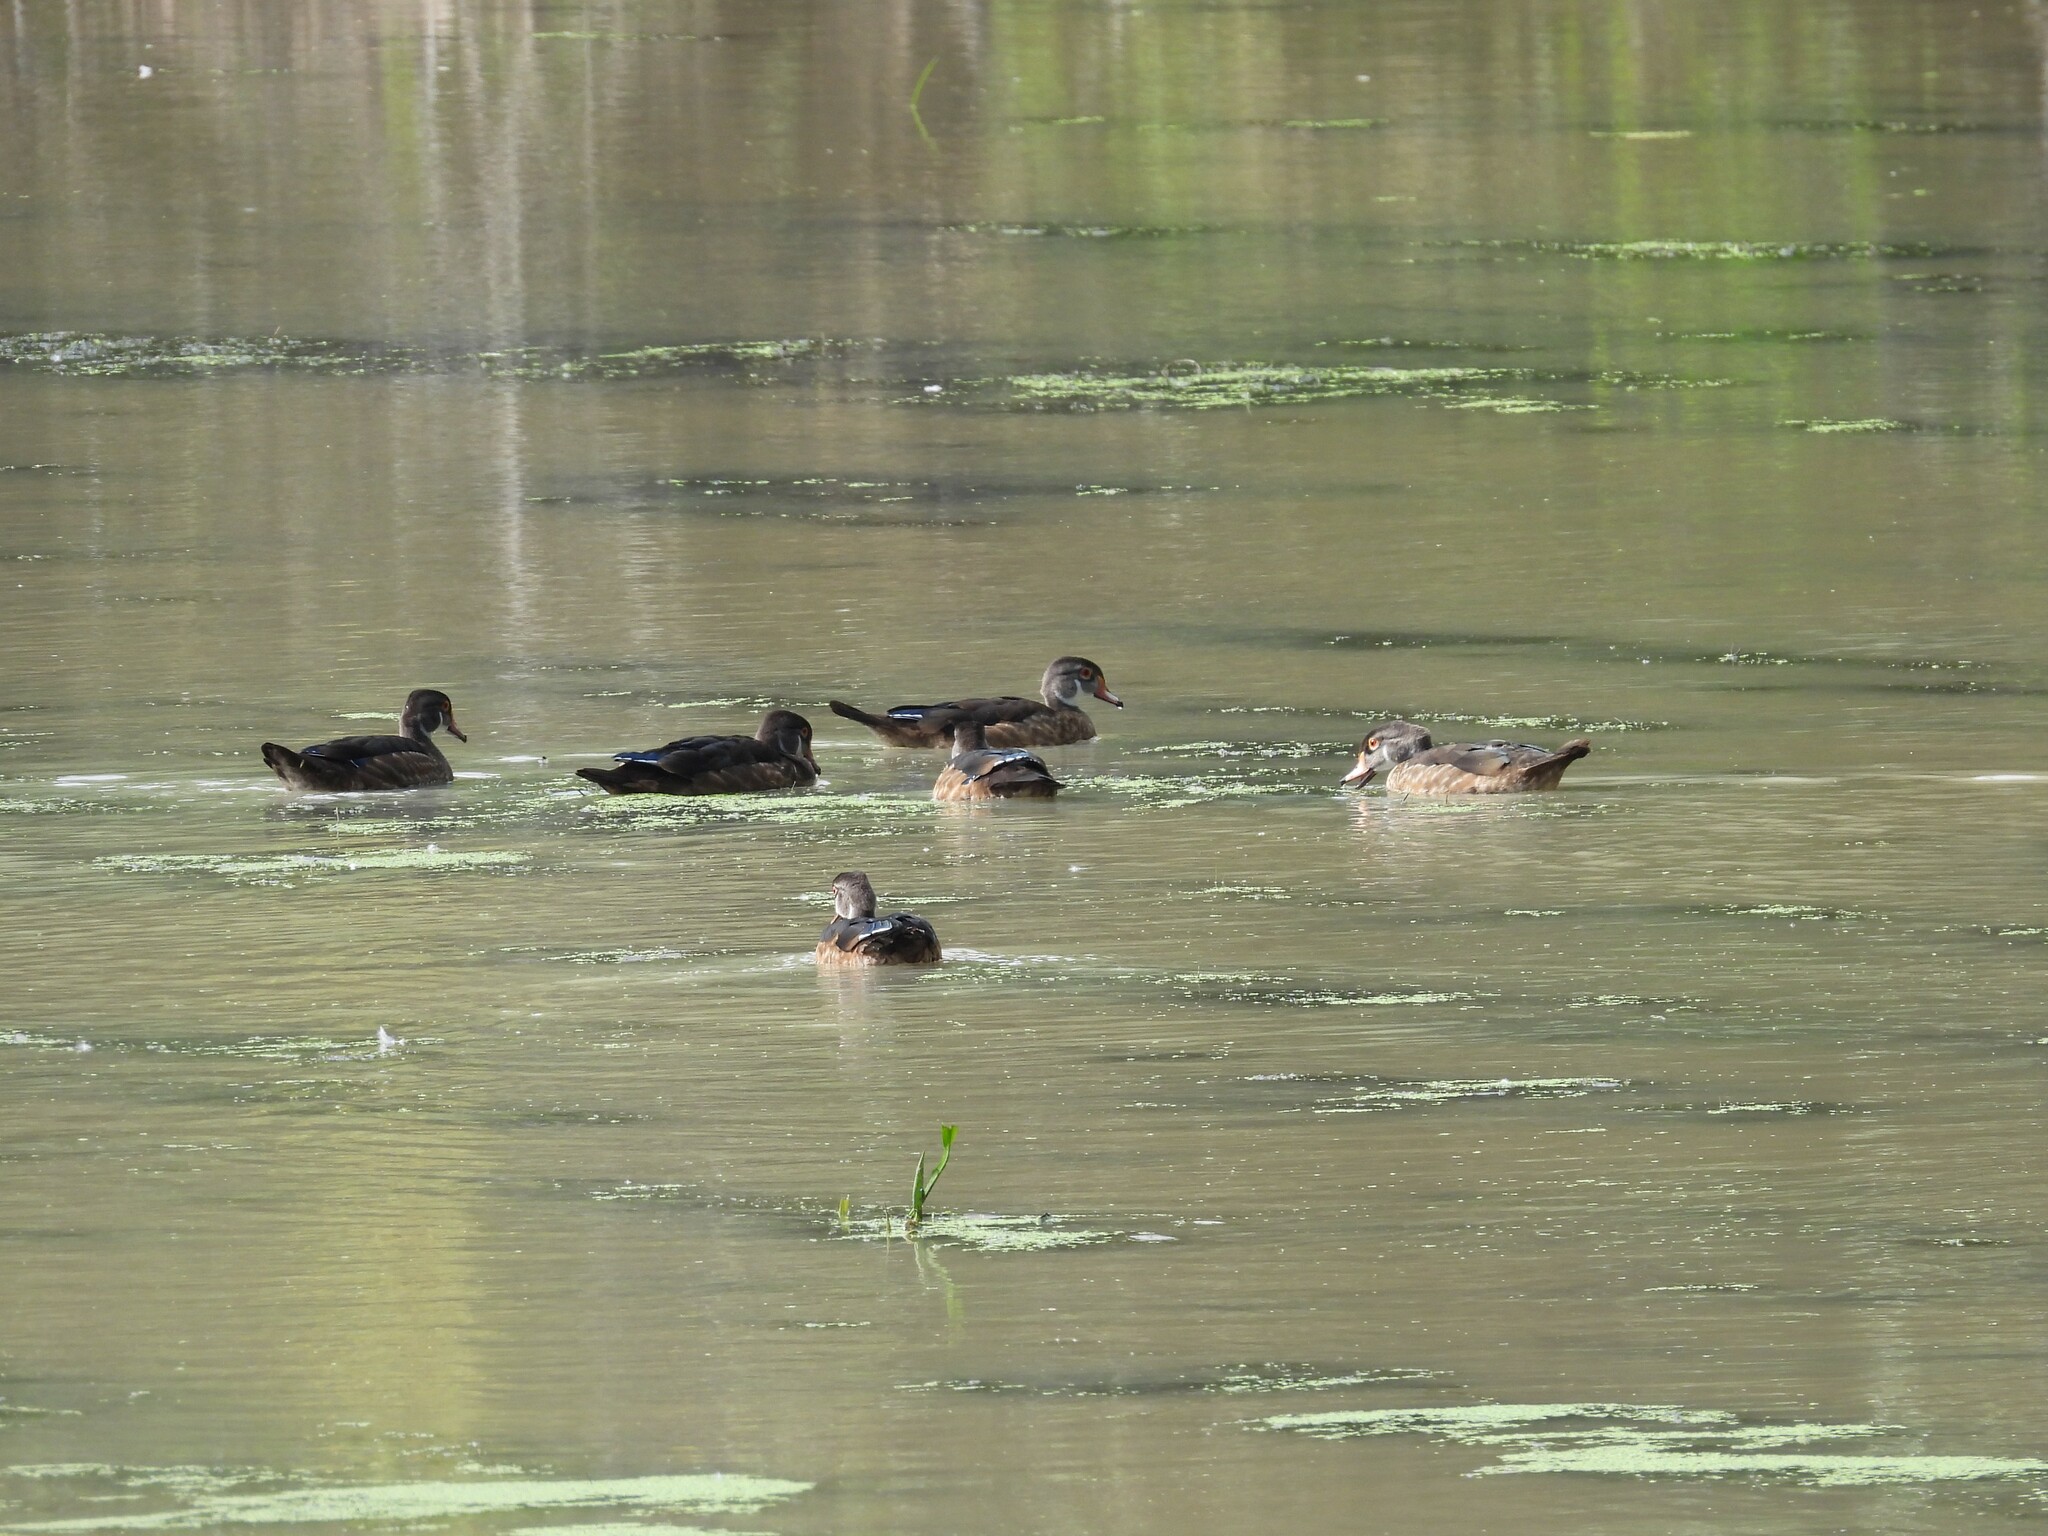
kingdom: Animalia
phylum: Chordata
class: Aves
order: Anseriformes
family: Anatidae
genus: Aix
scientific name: Aix sponsa
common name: Wood duck
